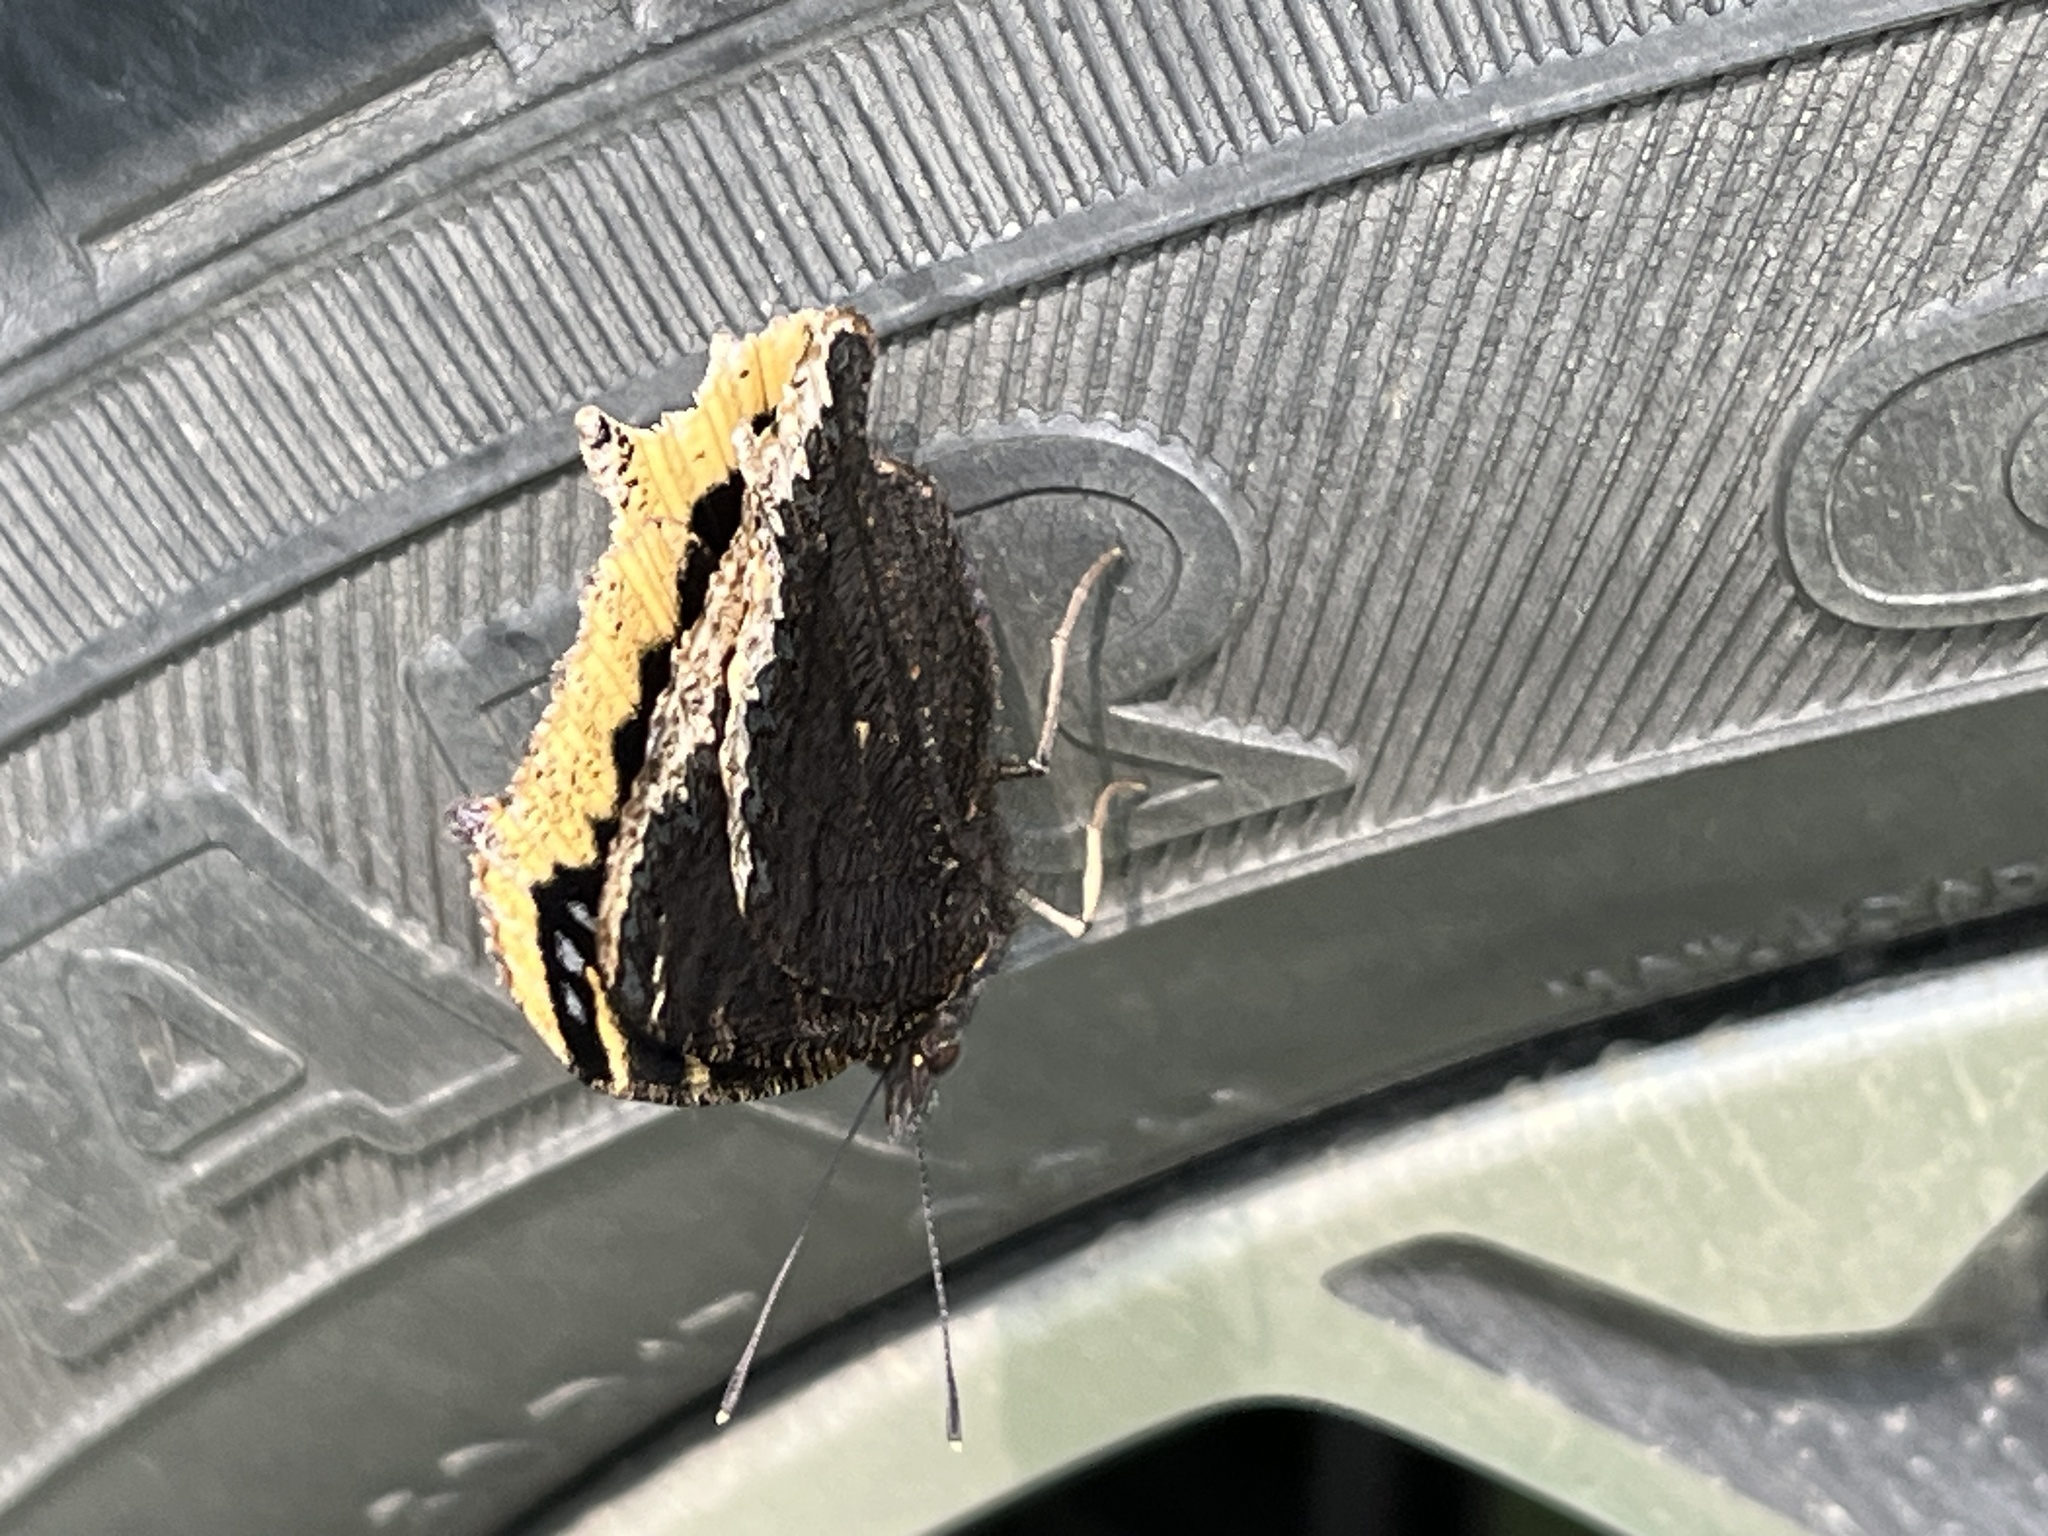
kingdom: Animalia
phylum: Arthropoda
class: Insecta
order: Lepidoptera
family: Nymphalidae
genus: Nymphalis
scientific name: Nymphalis antiopa
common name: Camberwell beauty
